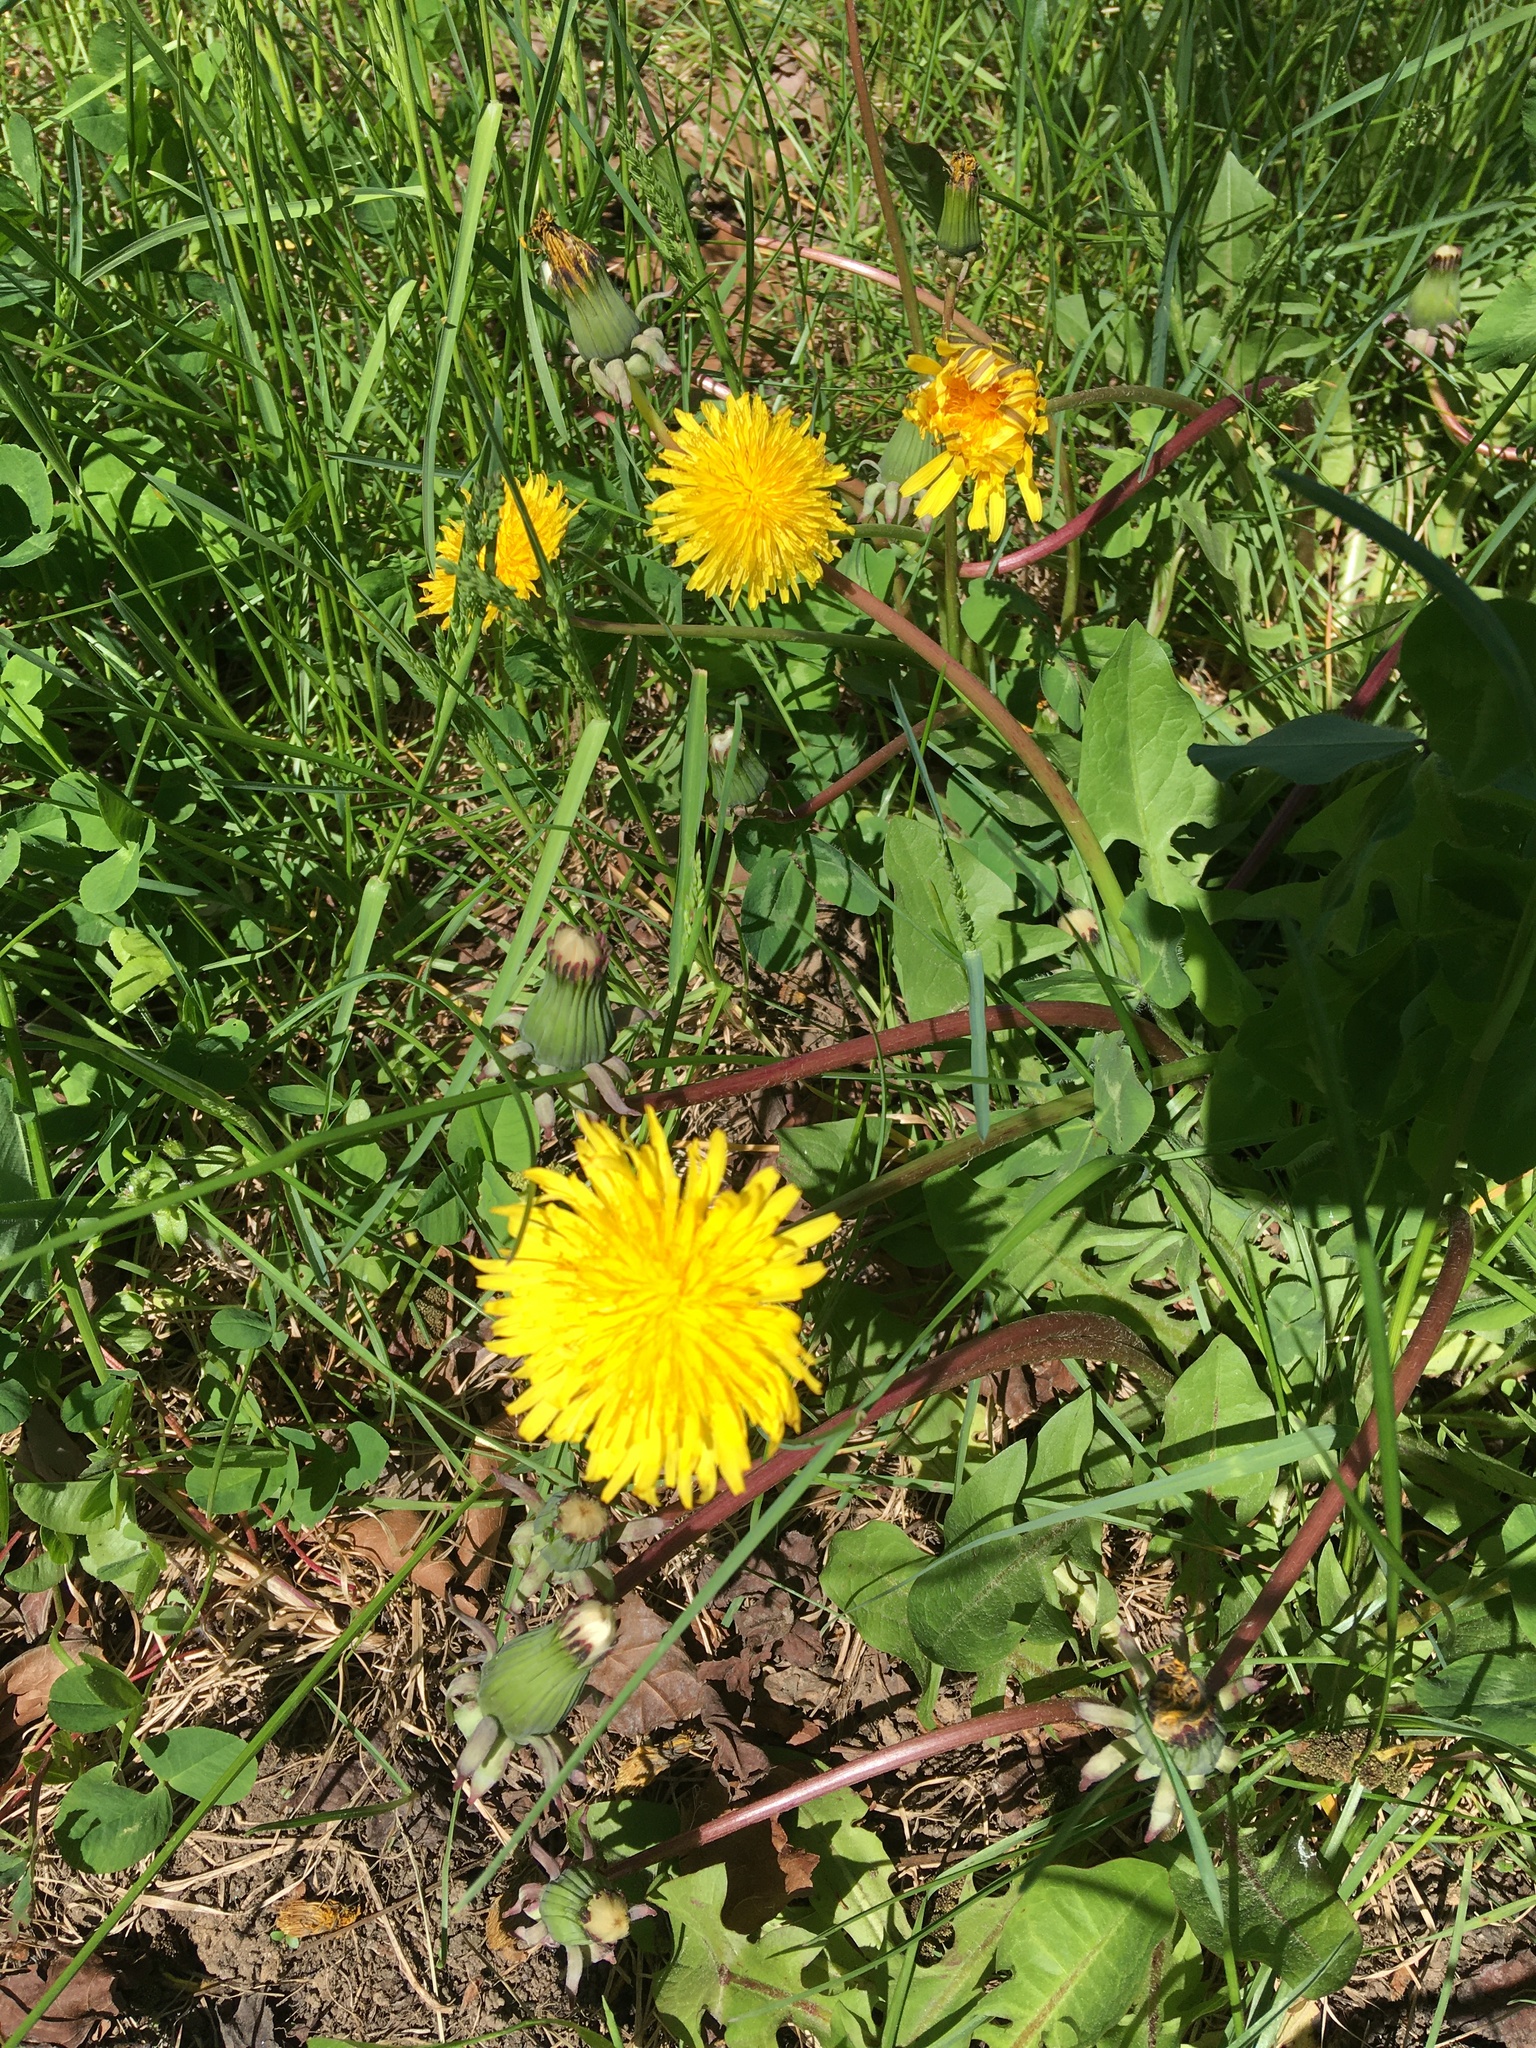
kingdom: Plantae
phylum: Tracheophyta
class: Magnoliopsida
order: Asterales
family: Asteraceae
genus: Taraxacum
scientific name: Taraxacum
